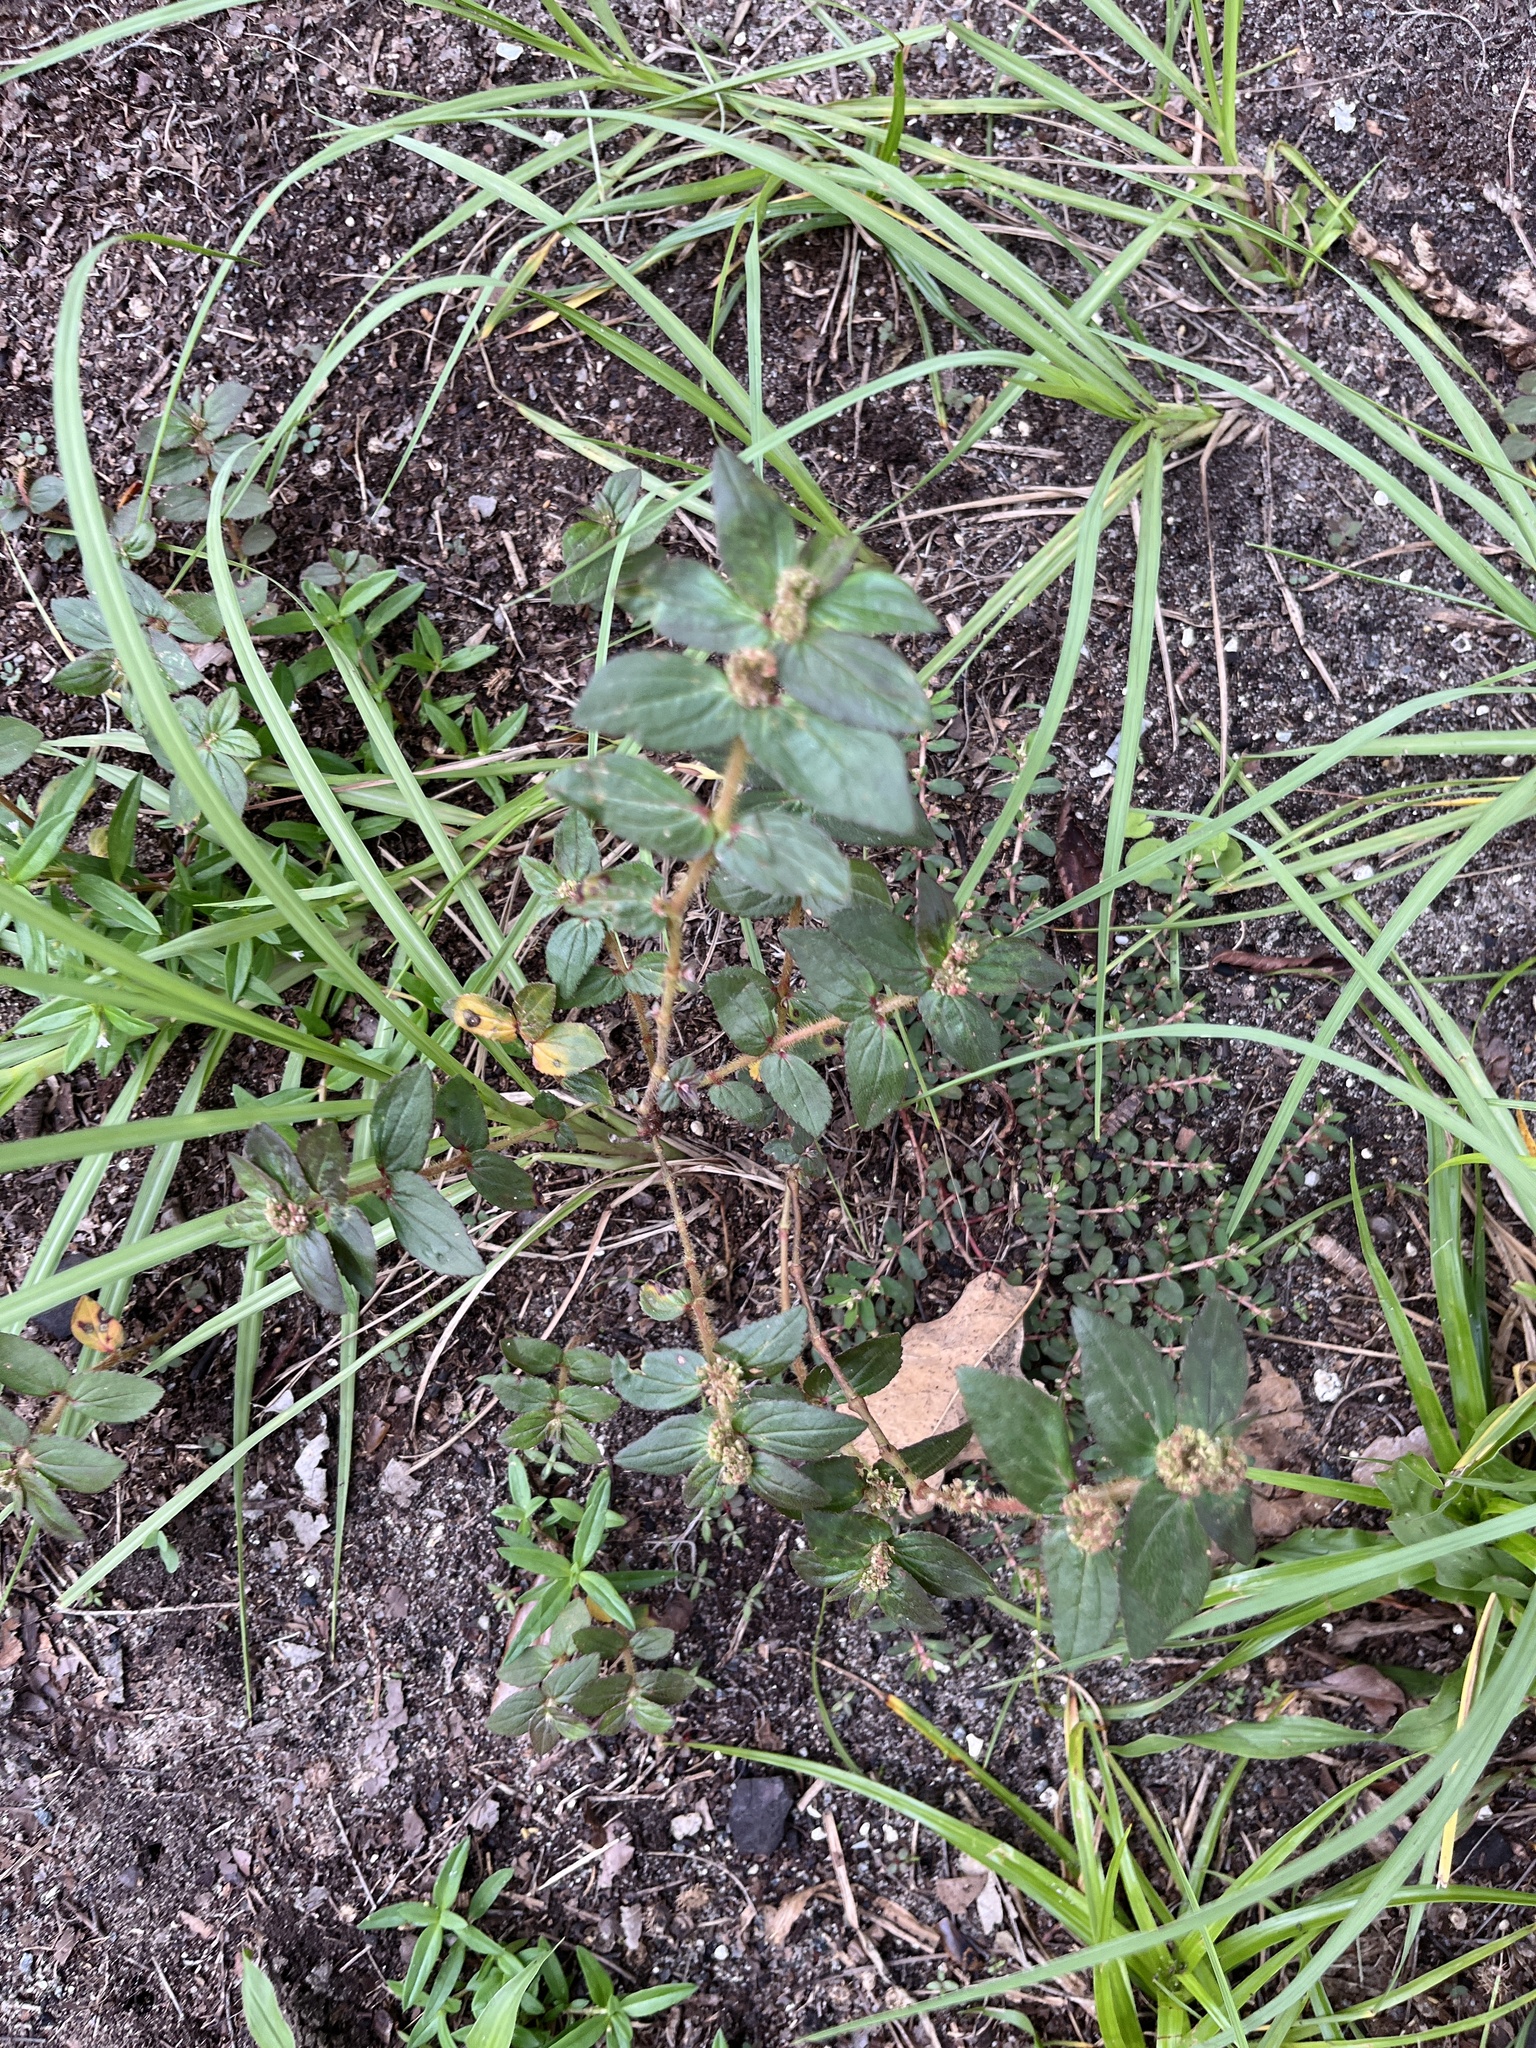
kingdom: Plantae
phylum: Tracheophyta
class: Magnoliopsida
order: Malpighiales
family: Euphorbiaceae
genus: Euphorbia
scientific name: Euphorbia hirta
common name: Pillpod sandmat
